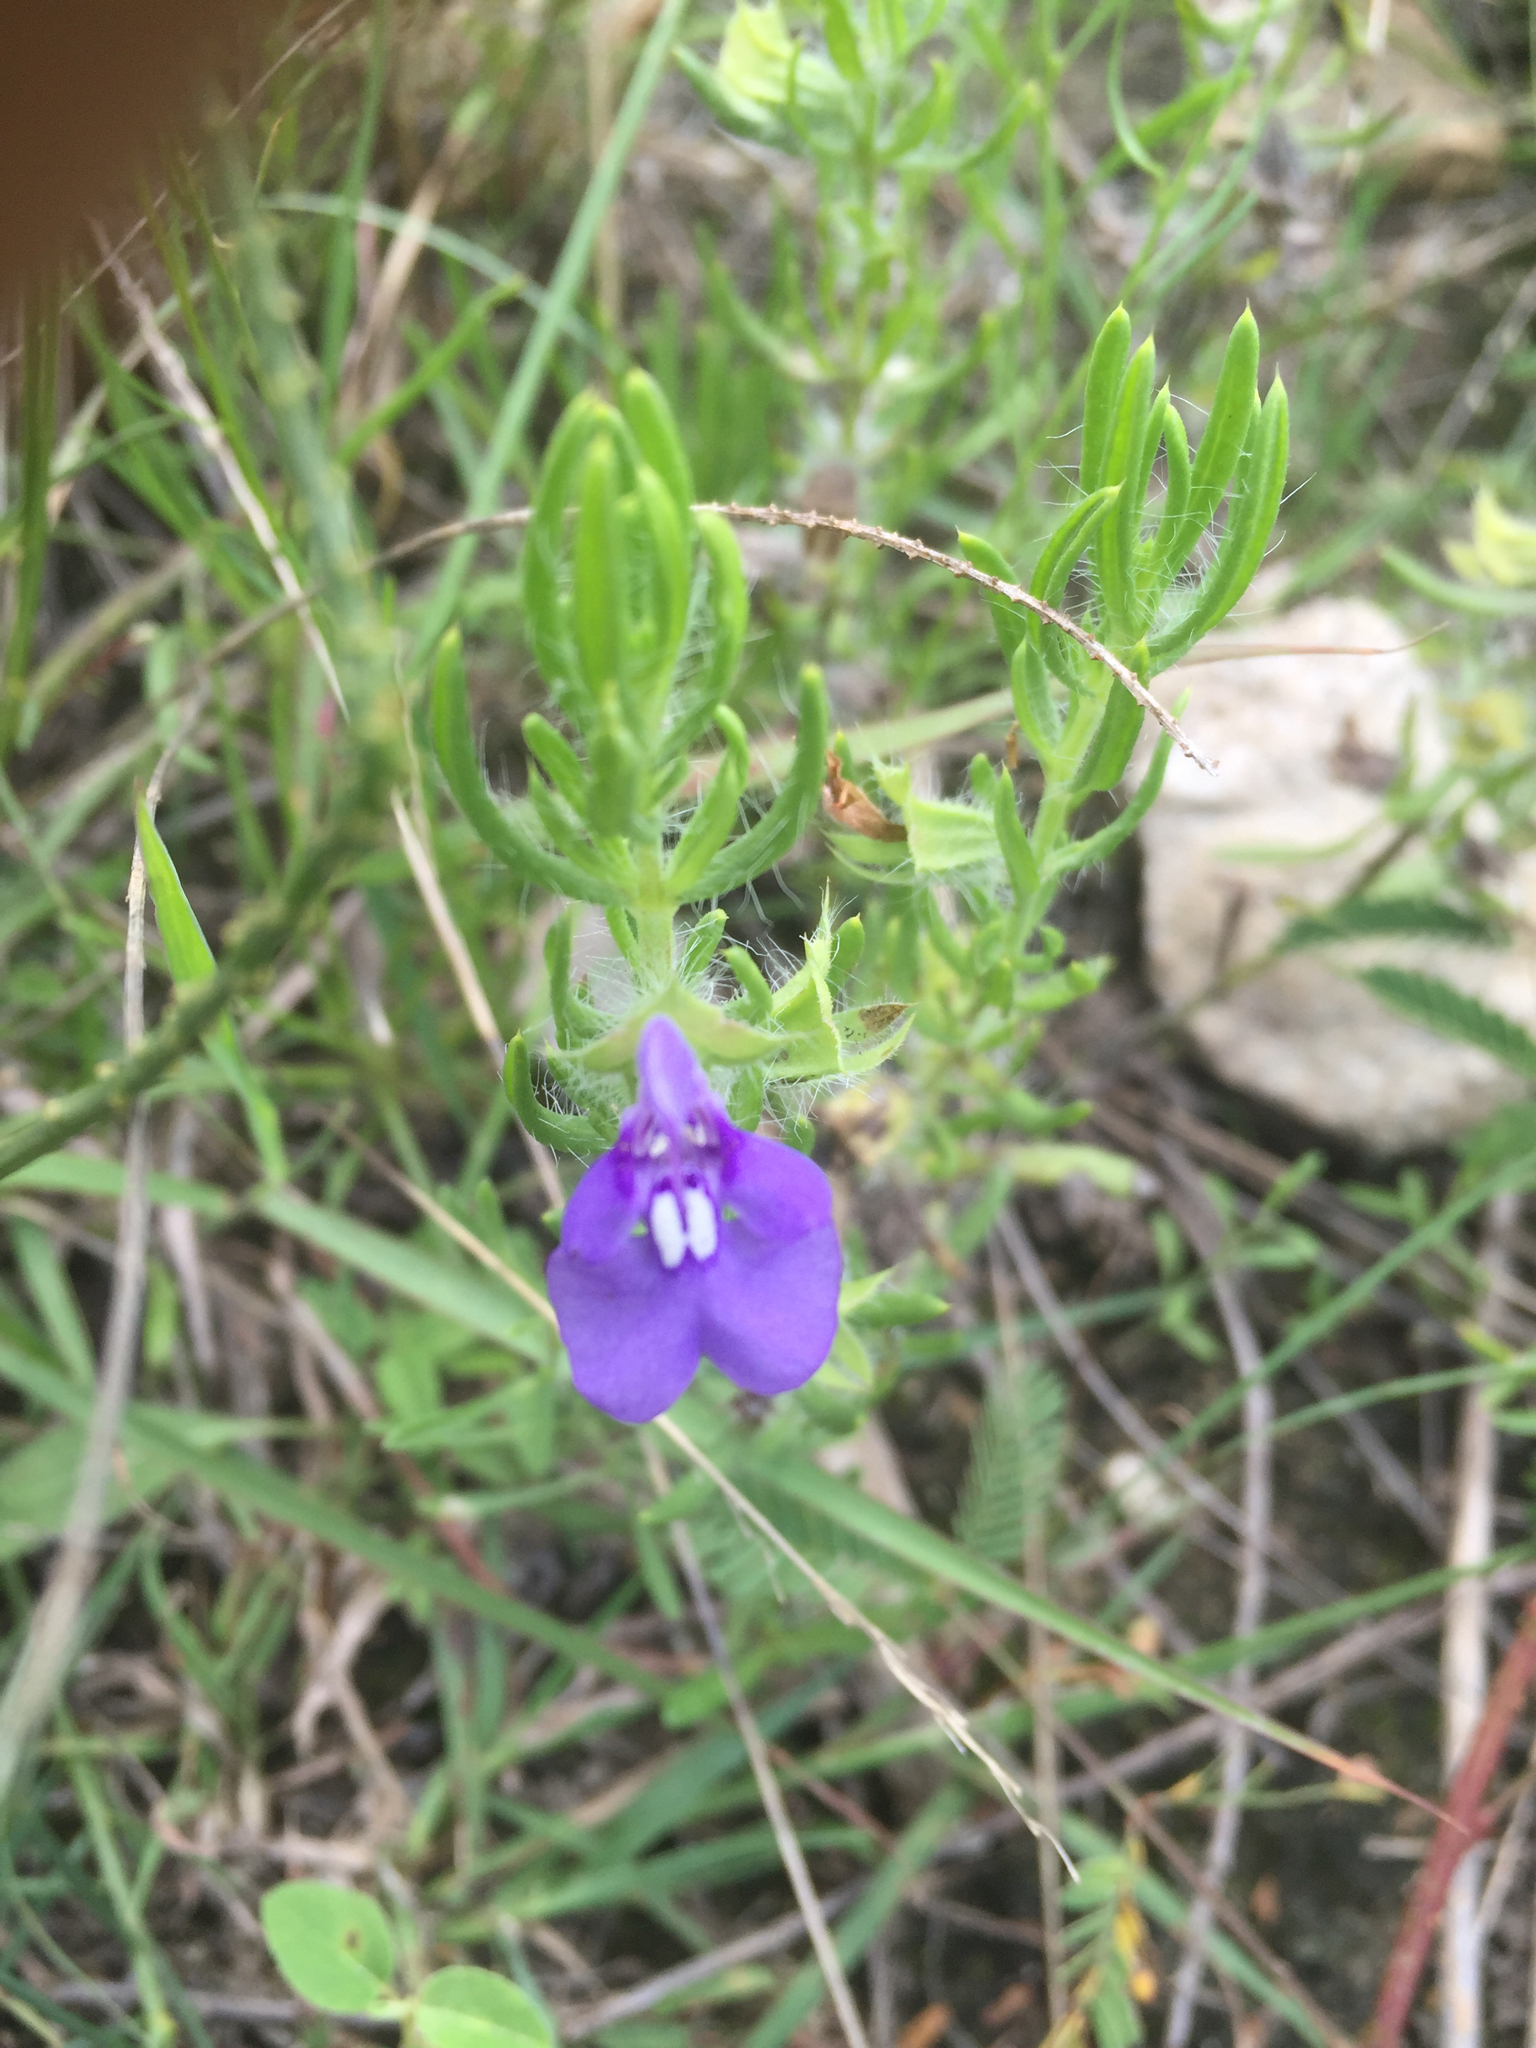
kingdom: Plantae
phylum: Tracheophyta
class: Magnoliopsida
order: Lamiales
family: Lamiaceae
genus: Salvia
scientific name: Salvia texana
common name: Texas sage
